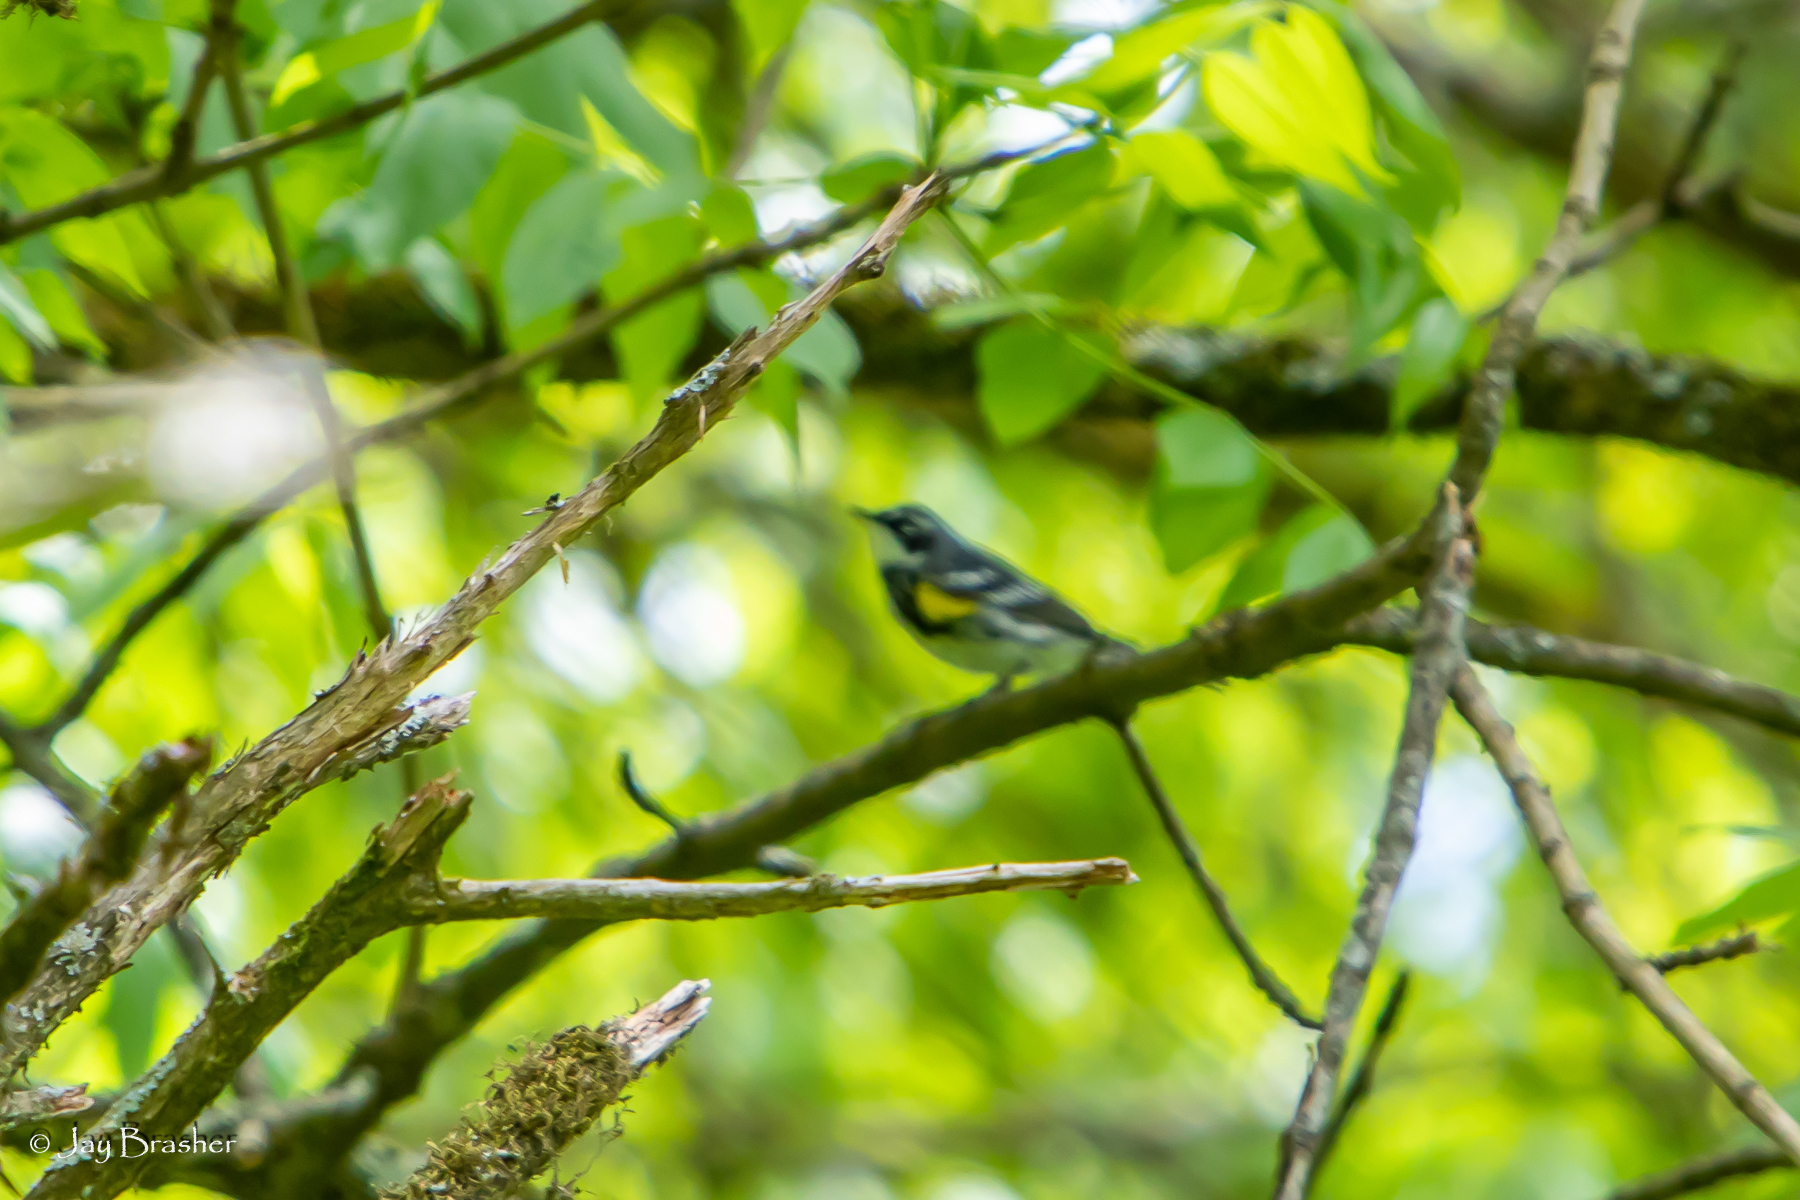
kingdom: Animalia
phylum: Chordata
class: Aves
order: Passeriformes
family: Parulidae
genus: Setophaga
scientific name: Setophaga coronata
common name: Myrtle warbler
